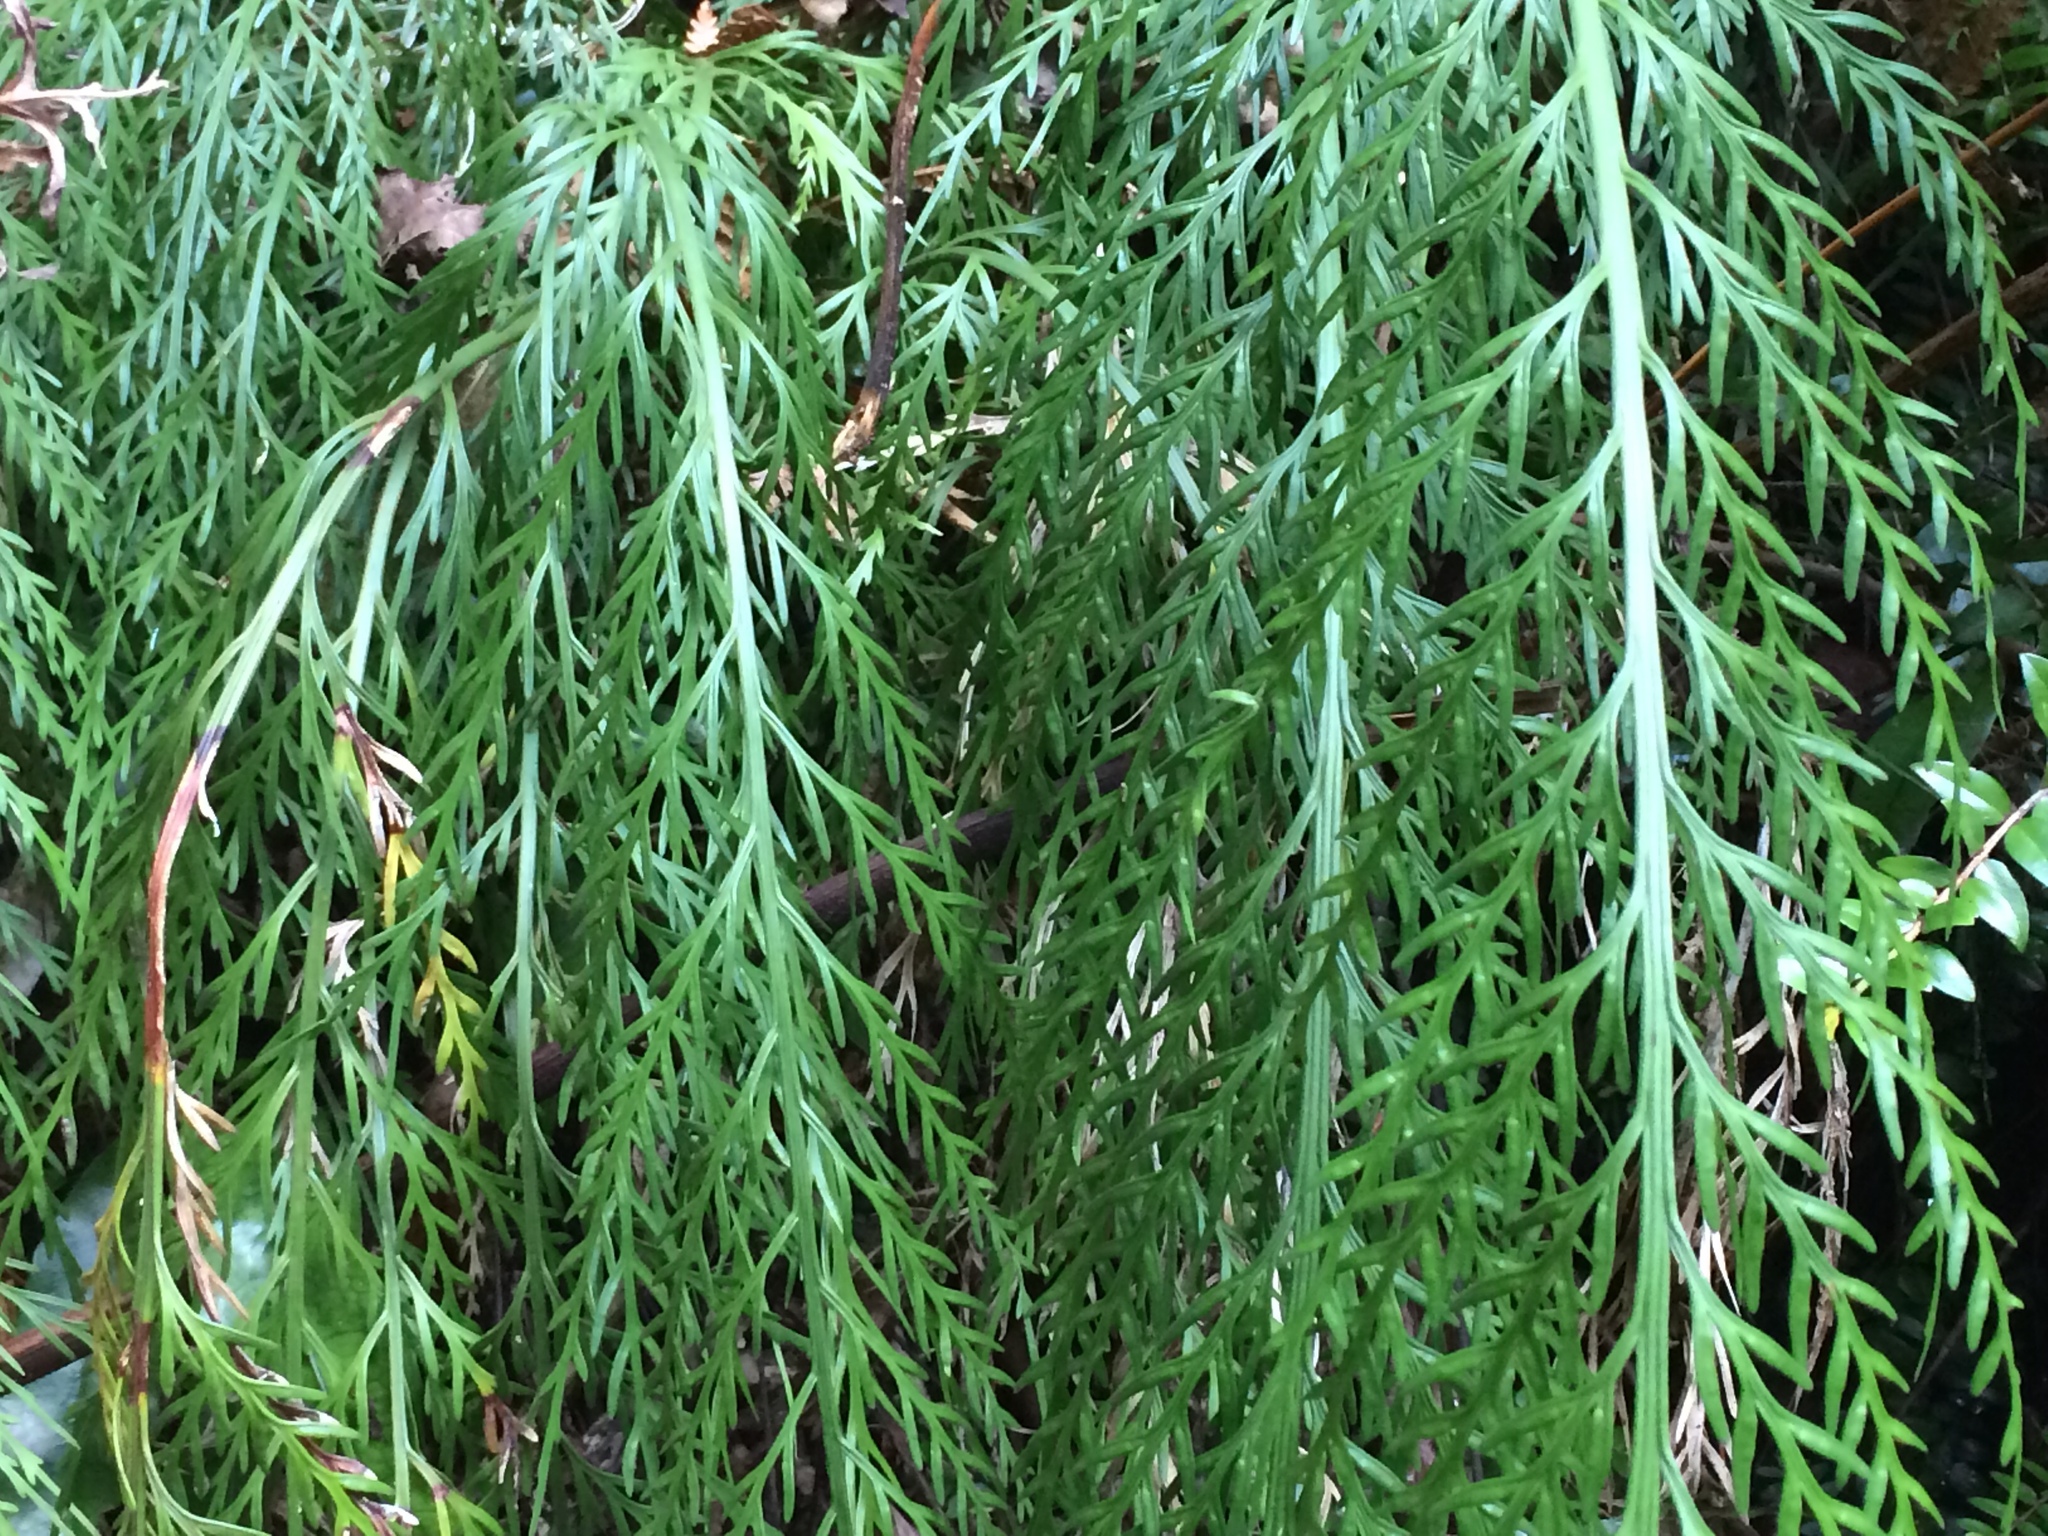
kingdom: Plantae
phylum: Tracheophyta
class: Polypodiopsida
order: Polypodiales
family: Aspleniaceae
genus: Asplenium
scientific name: Asplenium flaccidum
